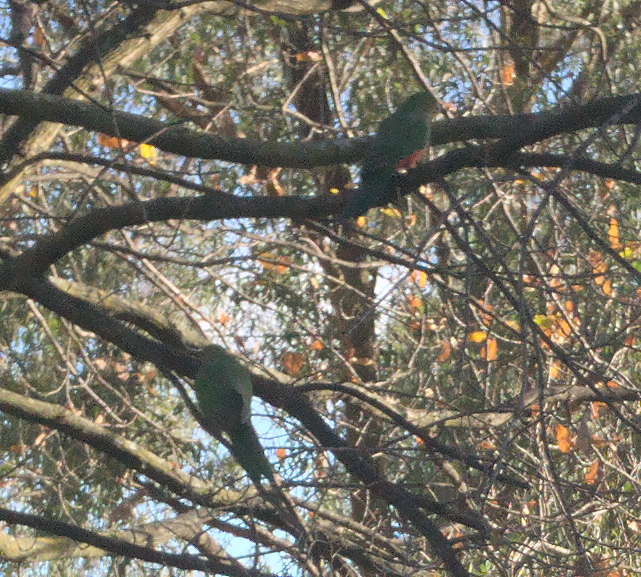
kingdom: Animalia
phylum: Chordata
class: Aves
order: Psittaciformes
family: Psittacidae
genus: Alisterus
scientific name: Alisterus scapularis
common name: Australian king parrot
